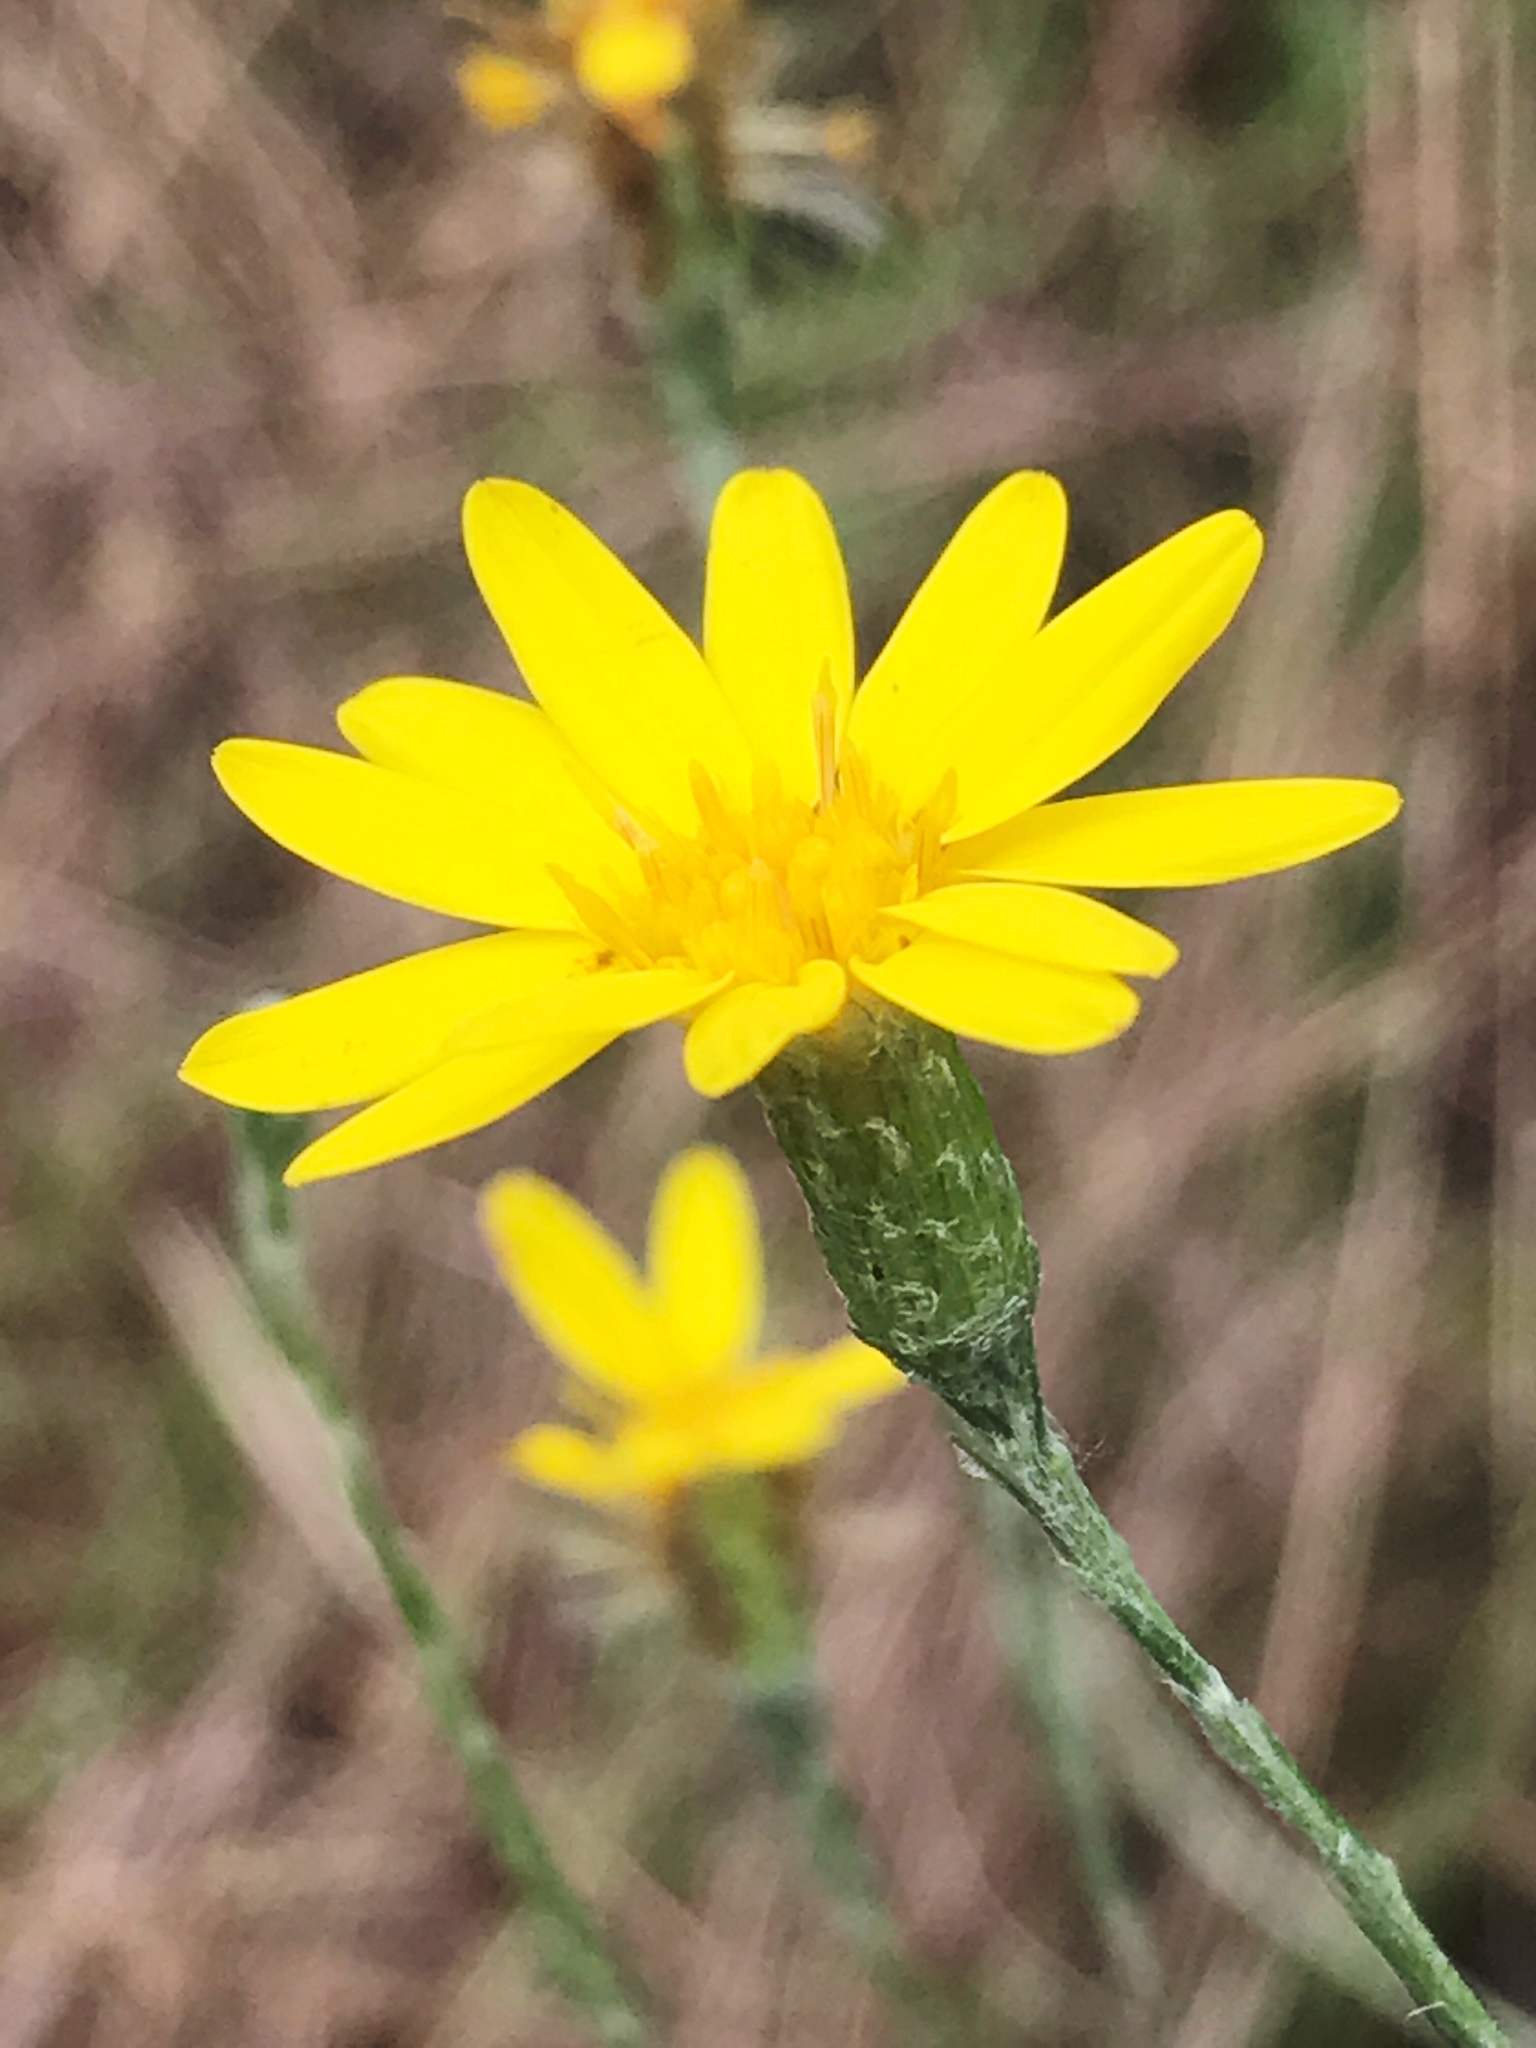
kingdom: Plantae
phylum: Tracheophyta
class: Magnoliopsida
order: Asterales
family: Asteraceae
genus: Pityopsis
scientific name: Pityopsis graminifolia
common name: Grass-leaf golden-aster
